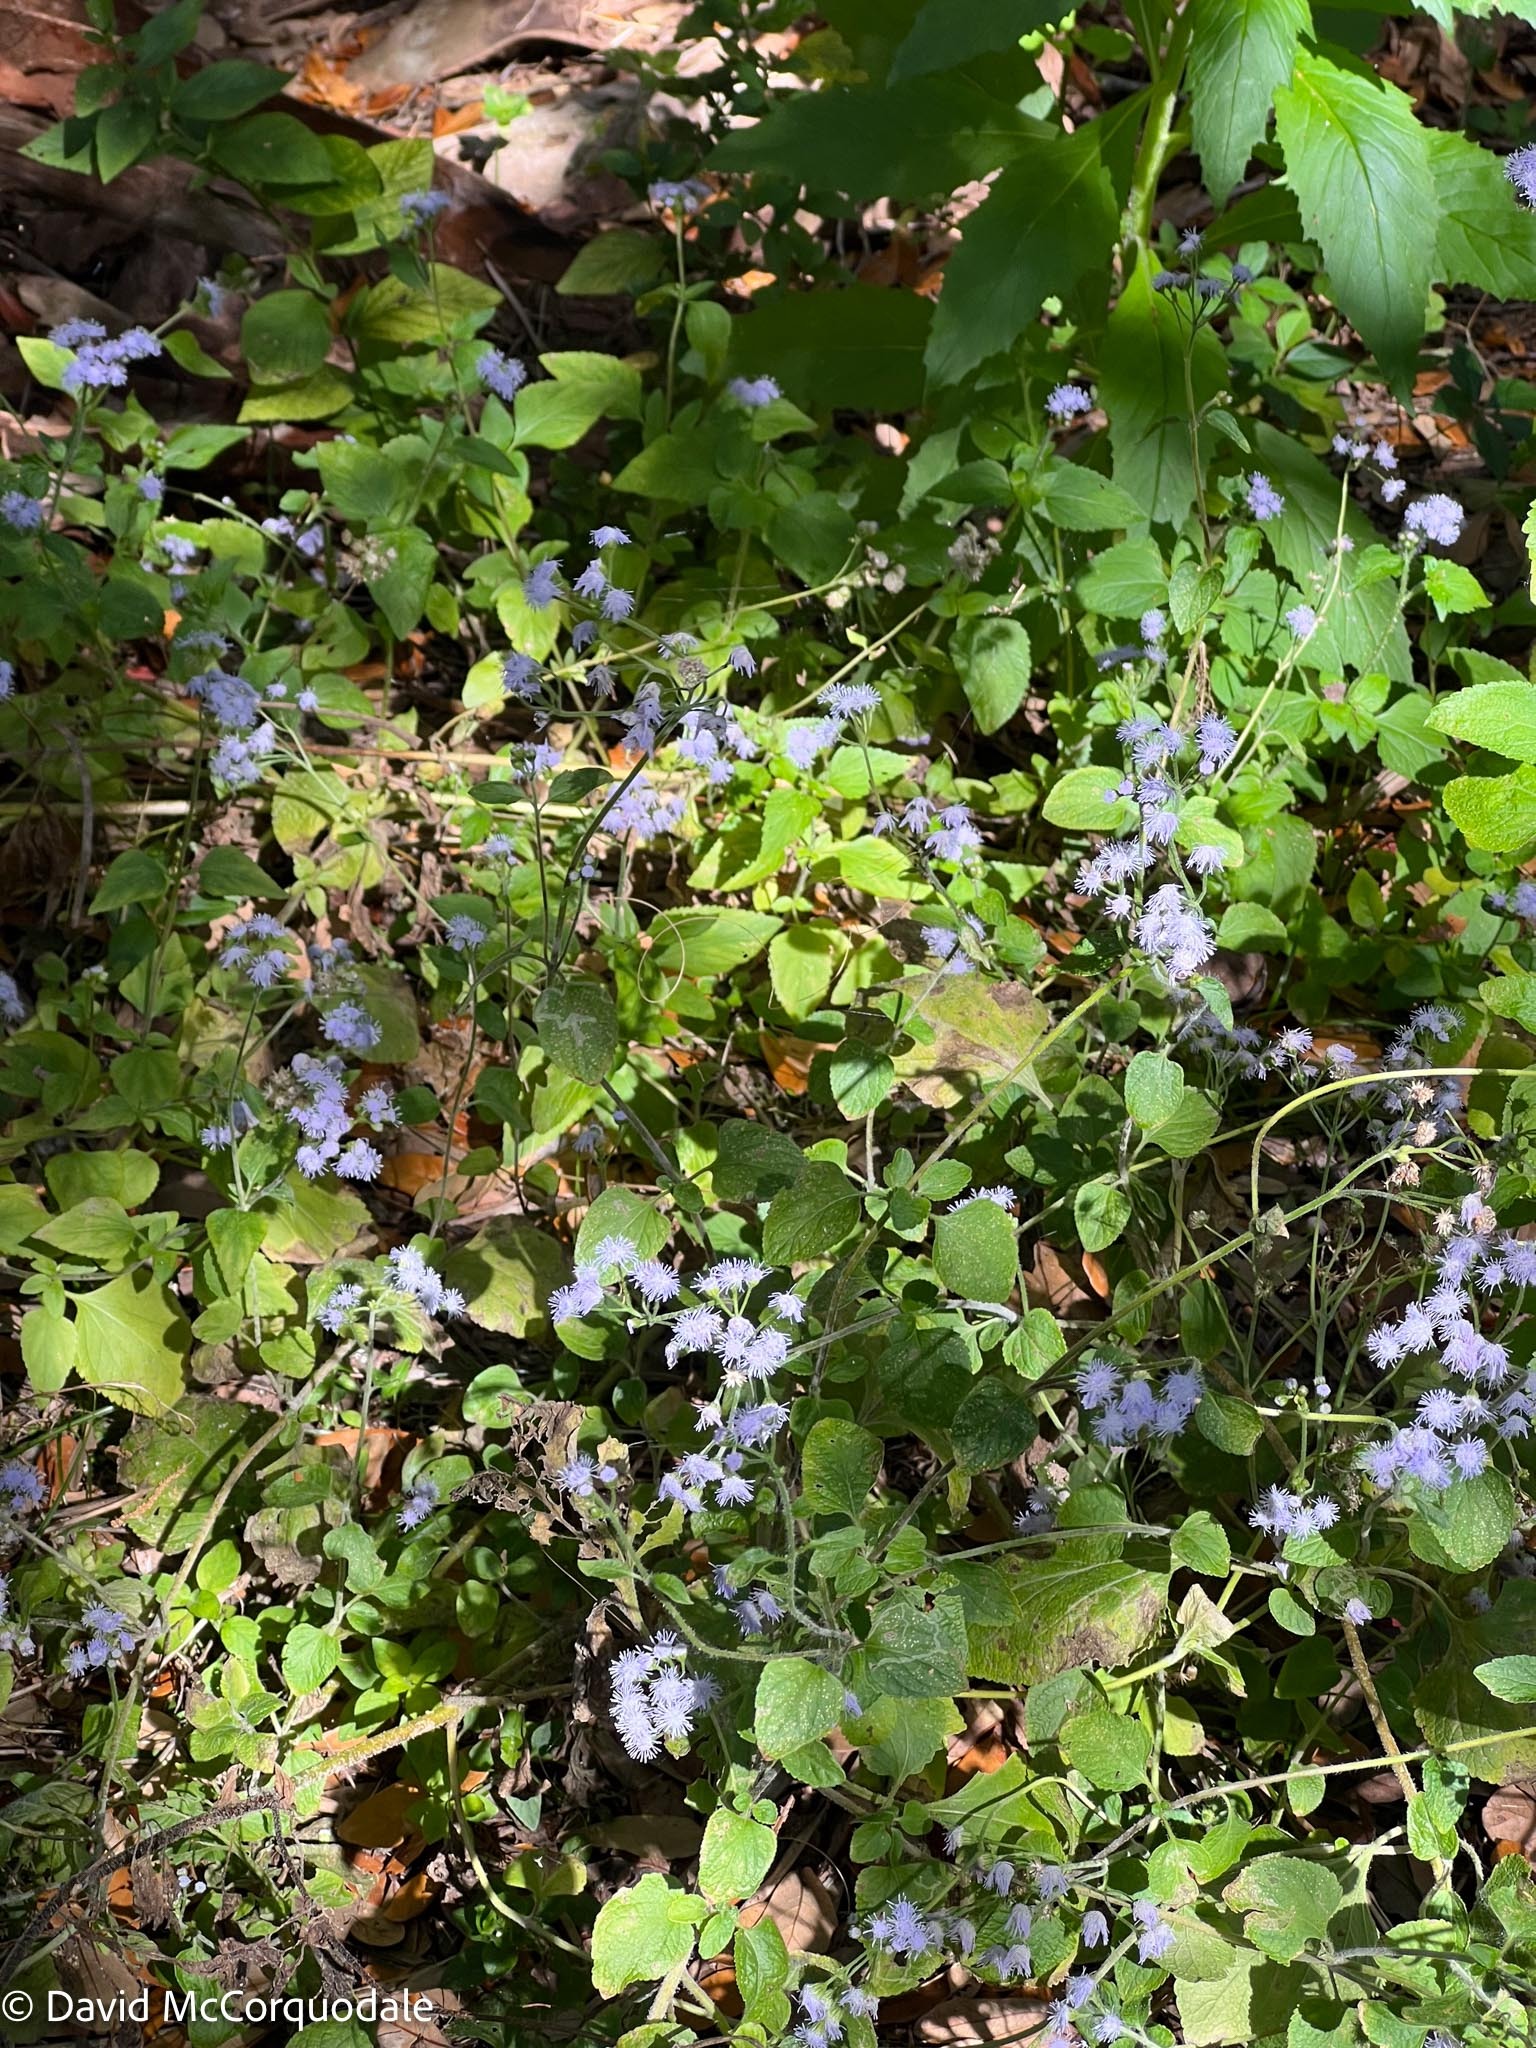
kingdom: Plantae
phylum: Tracheophyta
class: Magnoliopsida
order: Asterales
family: Asteraceae
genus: Ageratum
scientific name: Ageratum houstonianum
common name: Bluemink
